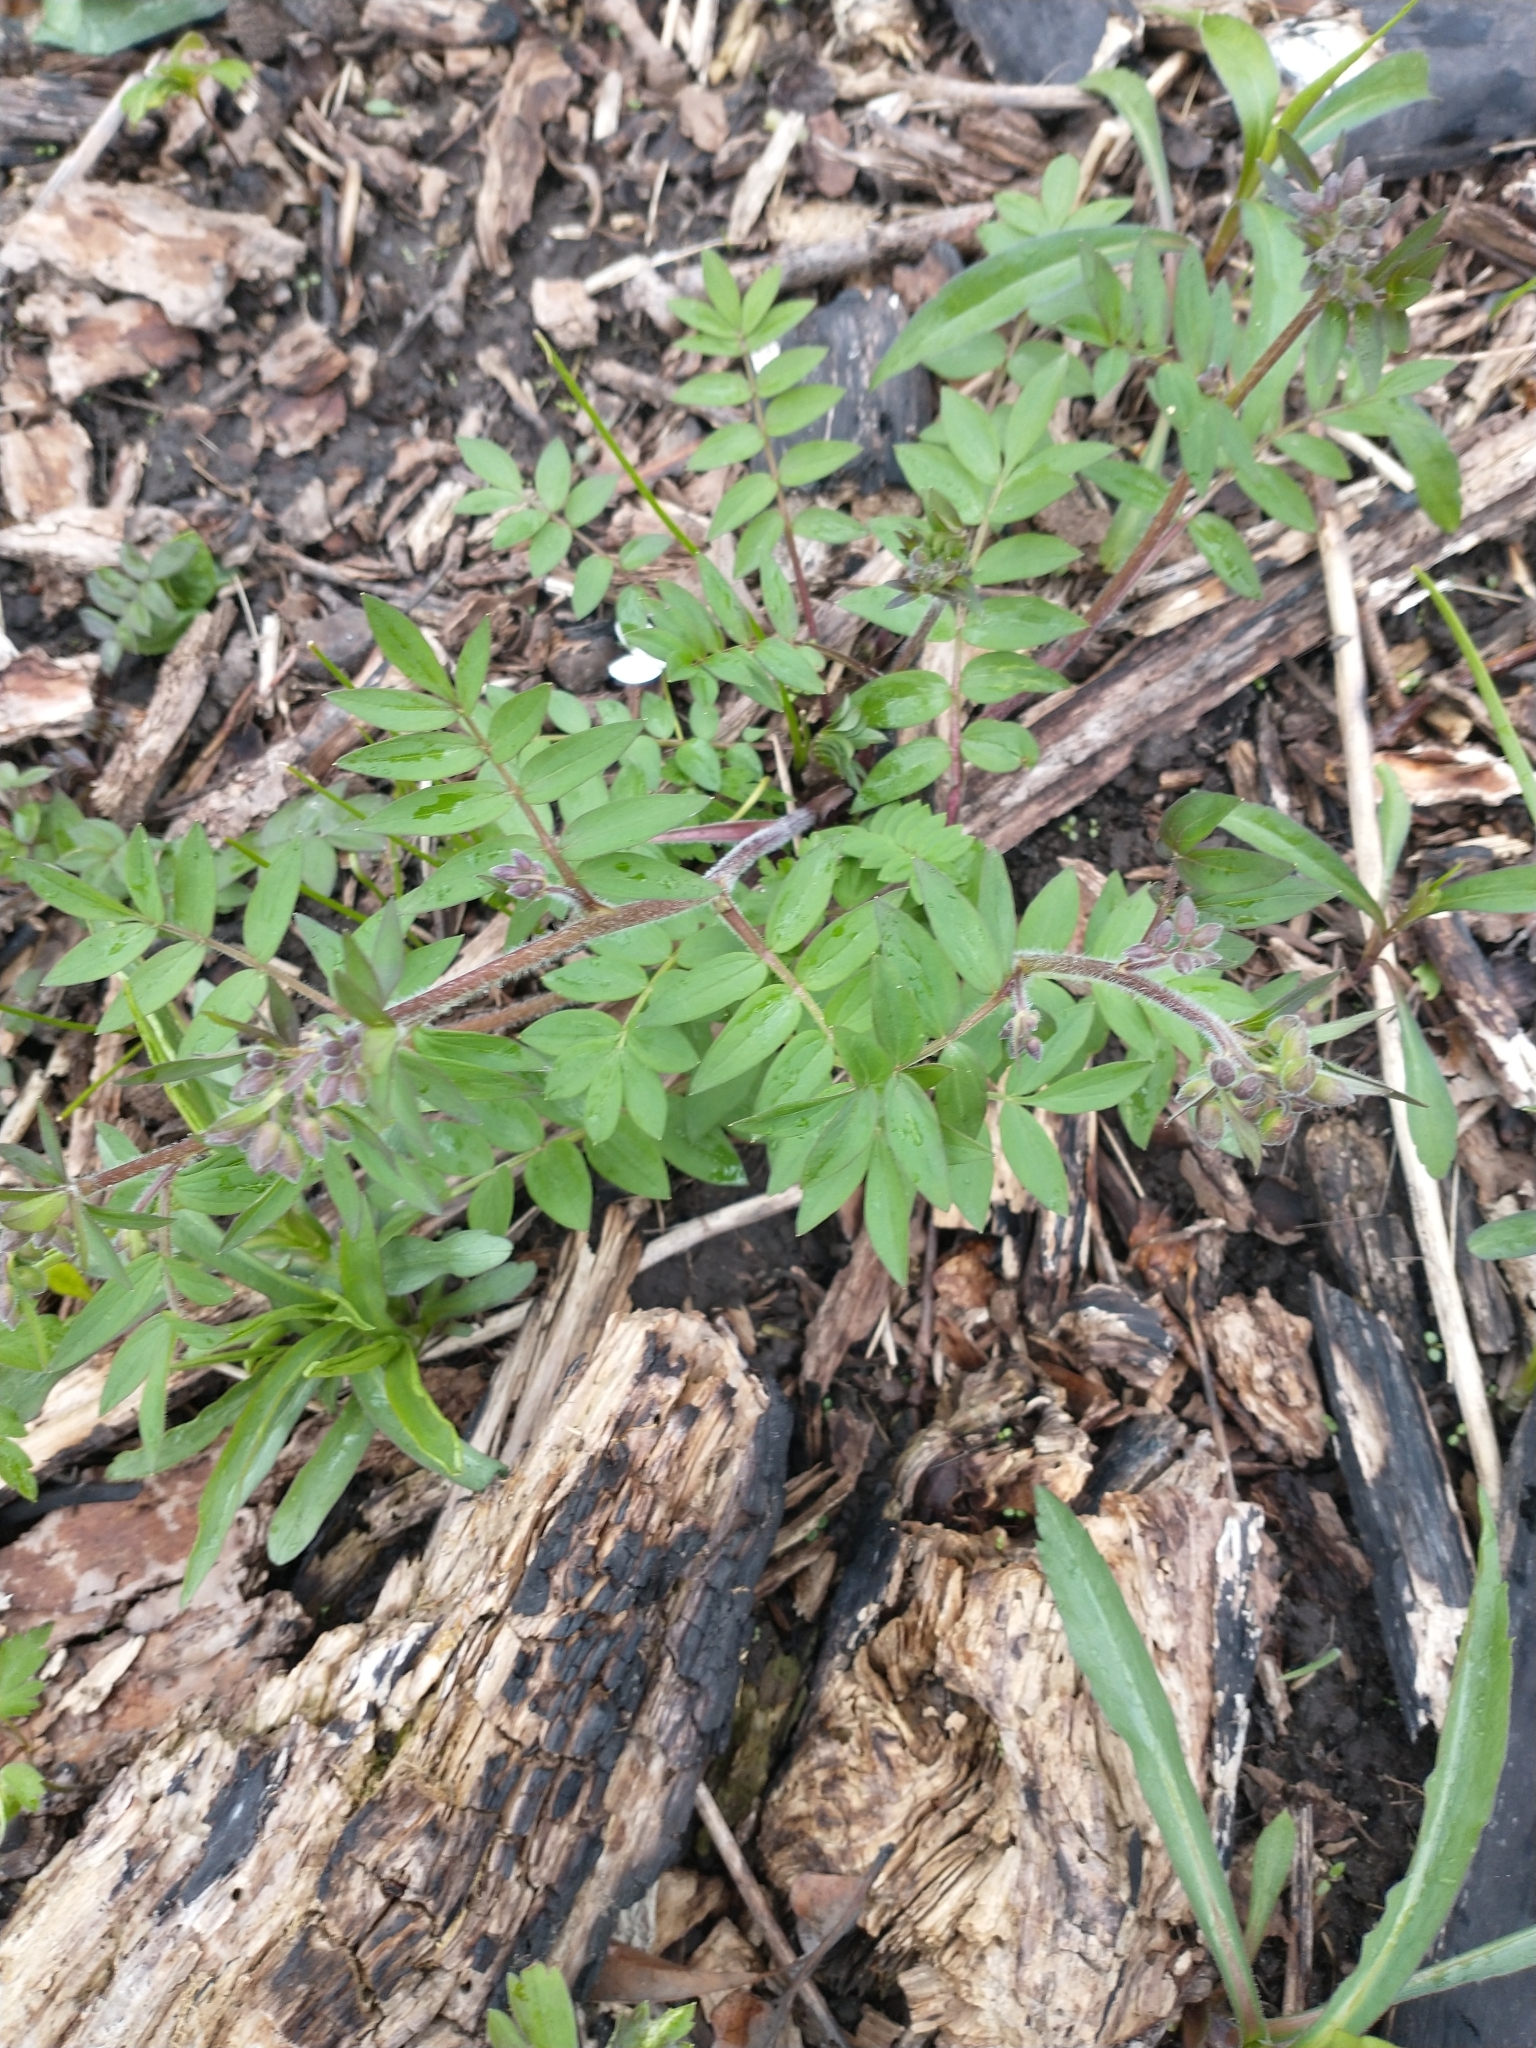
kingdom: Plantae
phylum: Tracheophyta
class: Magnoliopsida
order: Ericales
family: Polemoniaceae
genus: Polemonium
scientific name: Polemonium reptans
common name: Creeping jacob's-ladder
